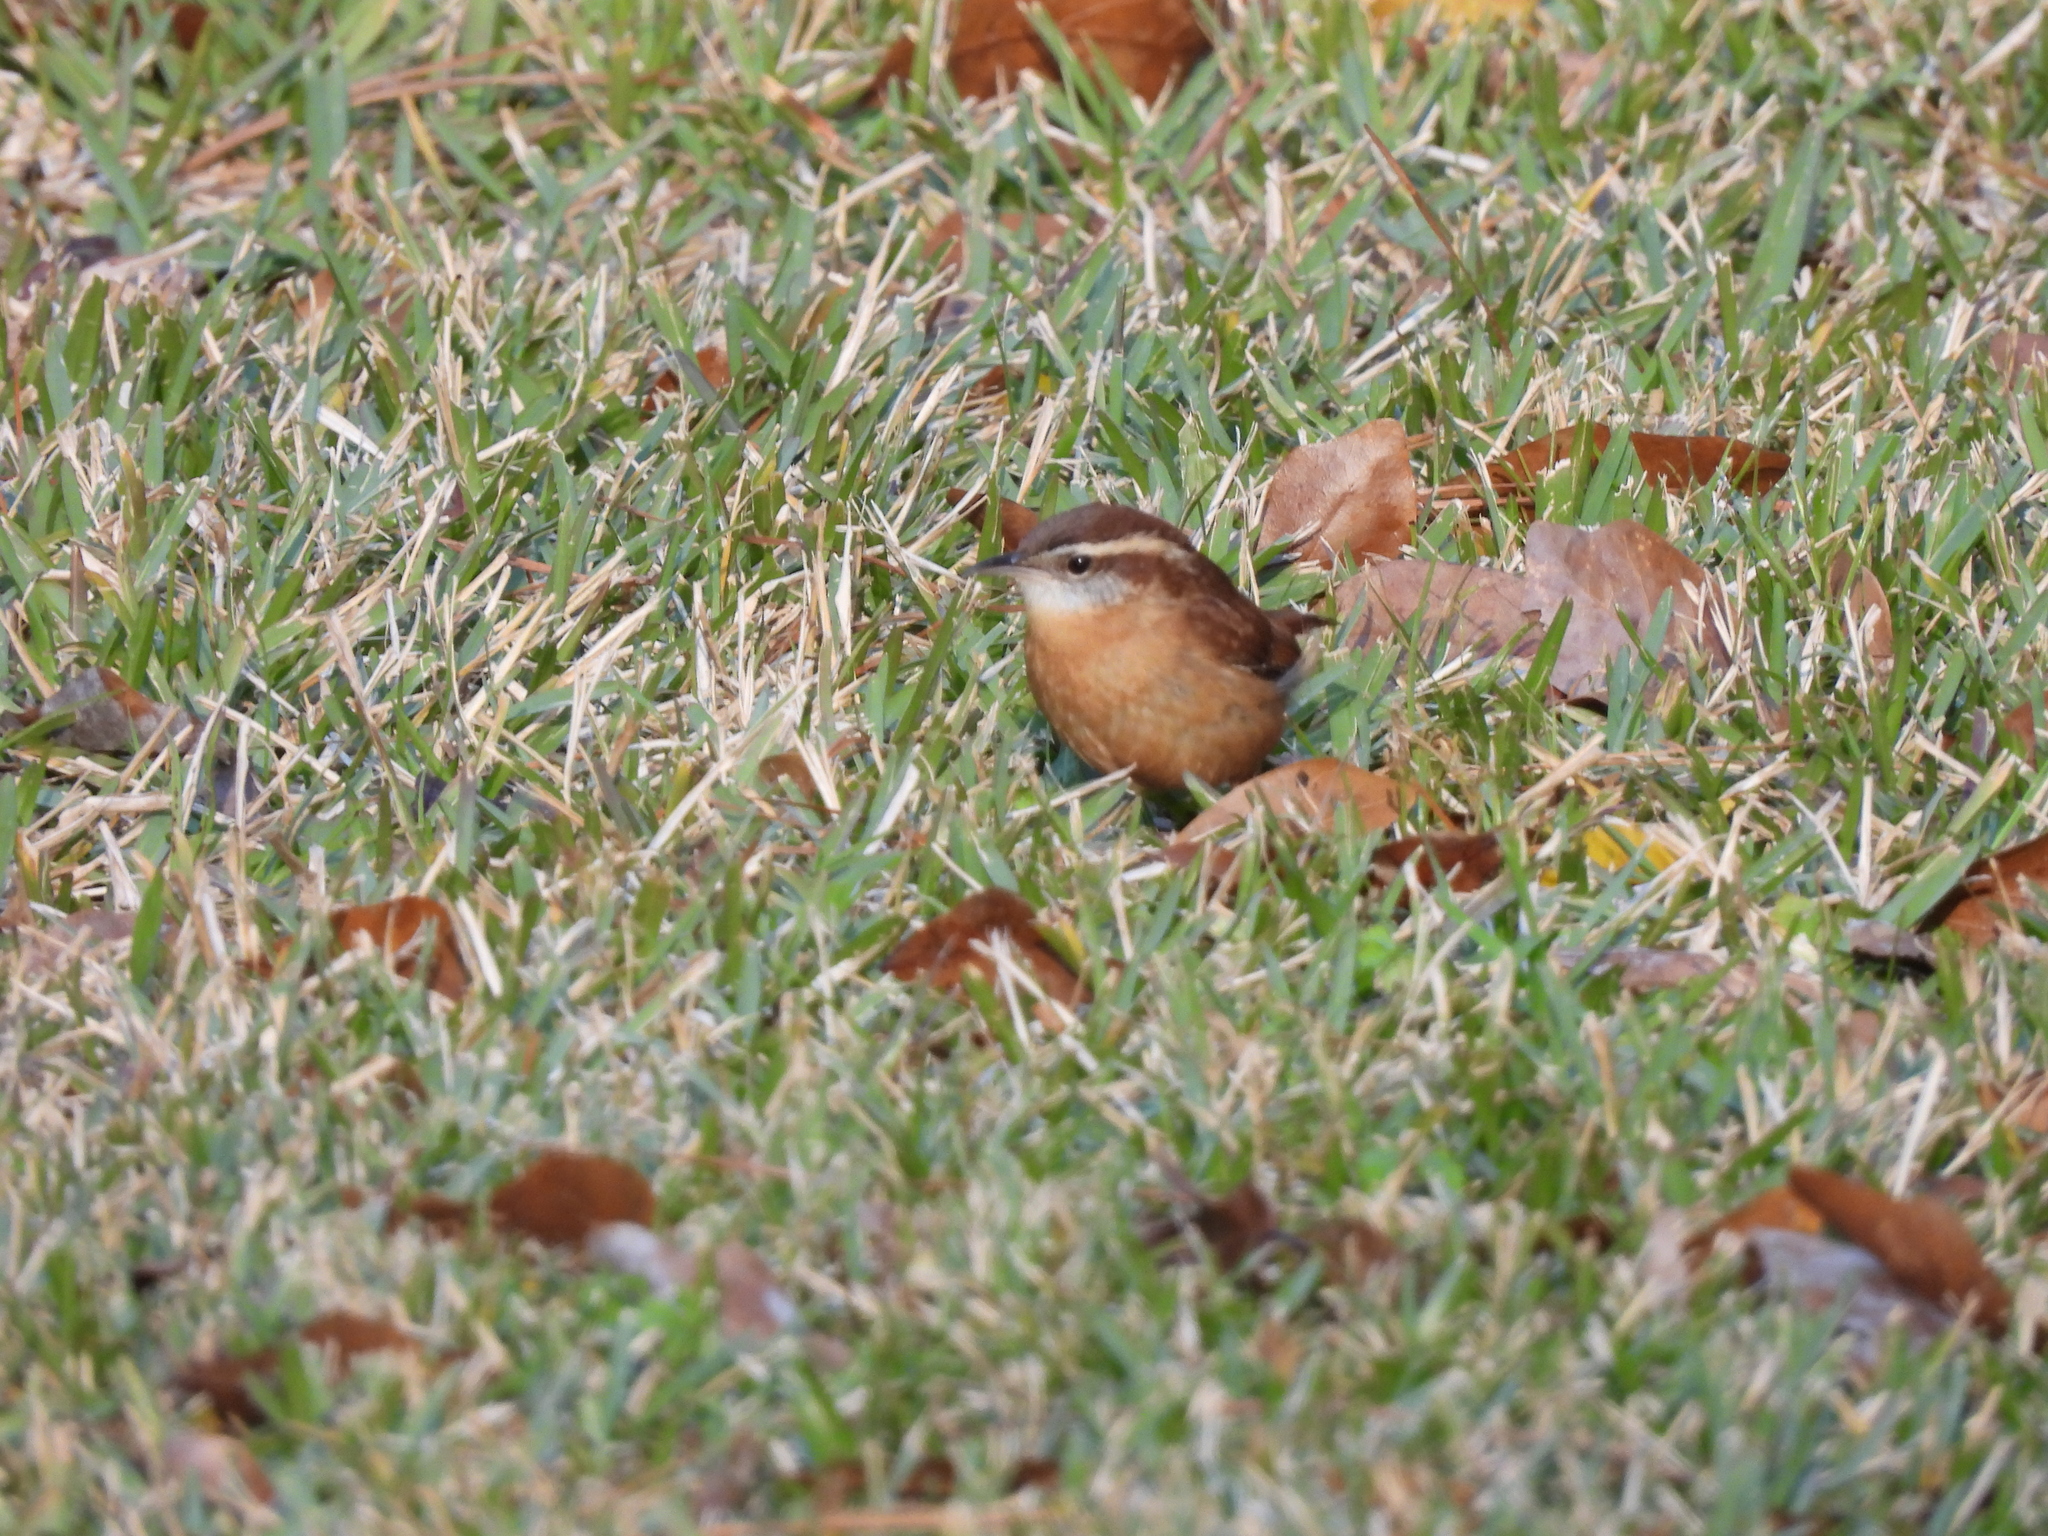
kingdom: Animalia
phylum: Chordata
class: Aves
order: Passeriformes
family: Troglodytidae
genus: Thryothorus
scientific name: Thryothorus ludovicianus
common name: Carolina wren
